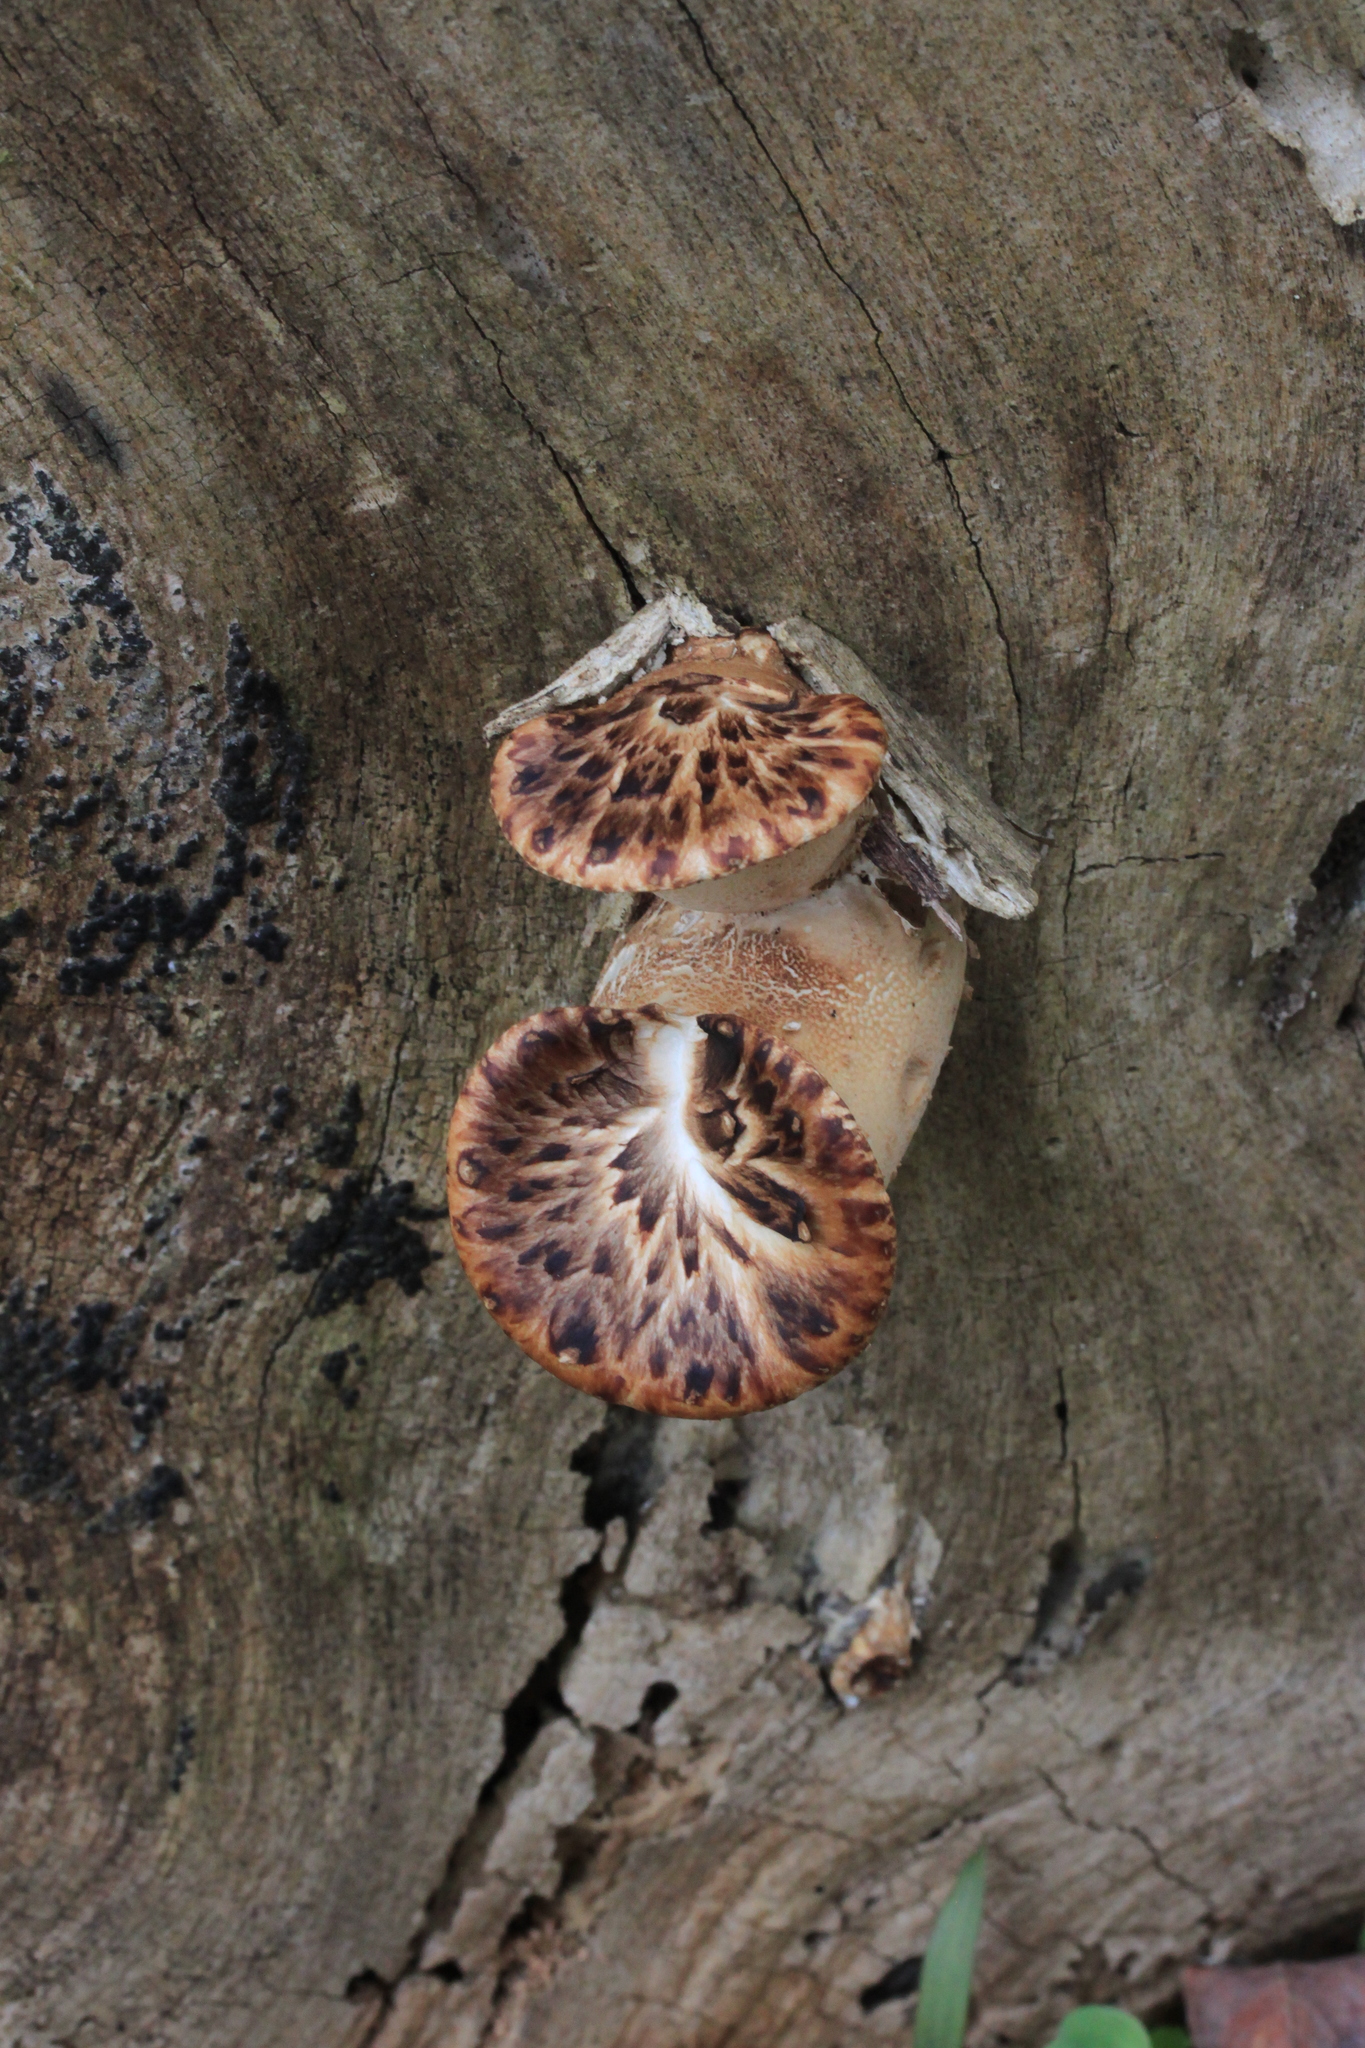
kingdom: Fungi
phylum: Basidiomycota
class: Agaricomycetes
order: Polyporales
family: Polyporaceae
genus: Cerioporus
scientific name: Cerioporus squamosus
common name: Dryad's saddle
